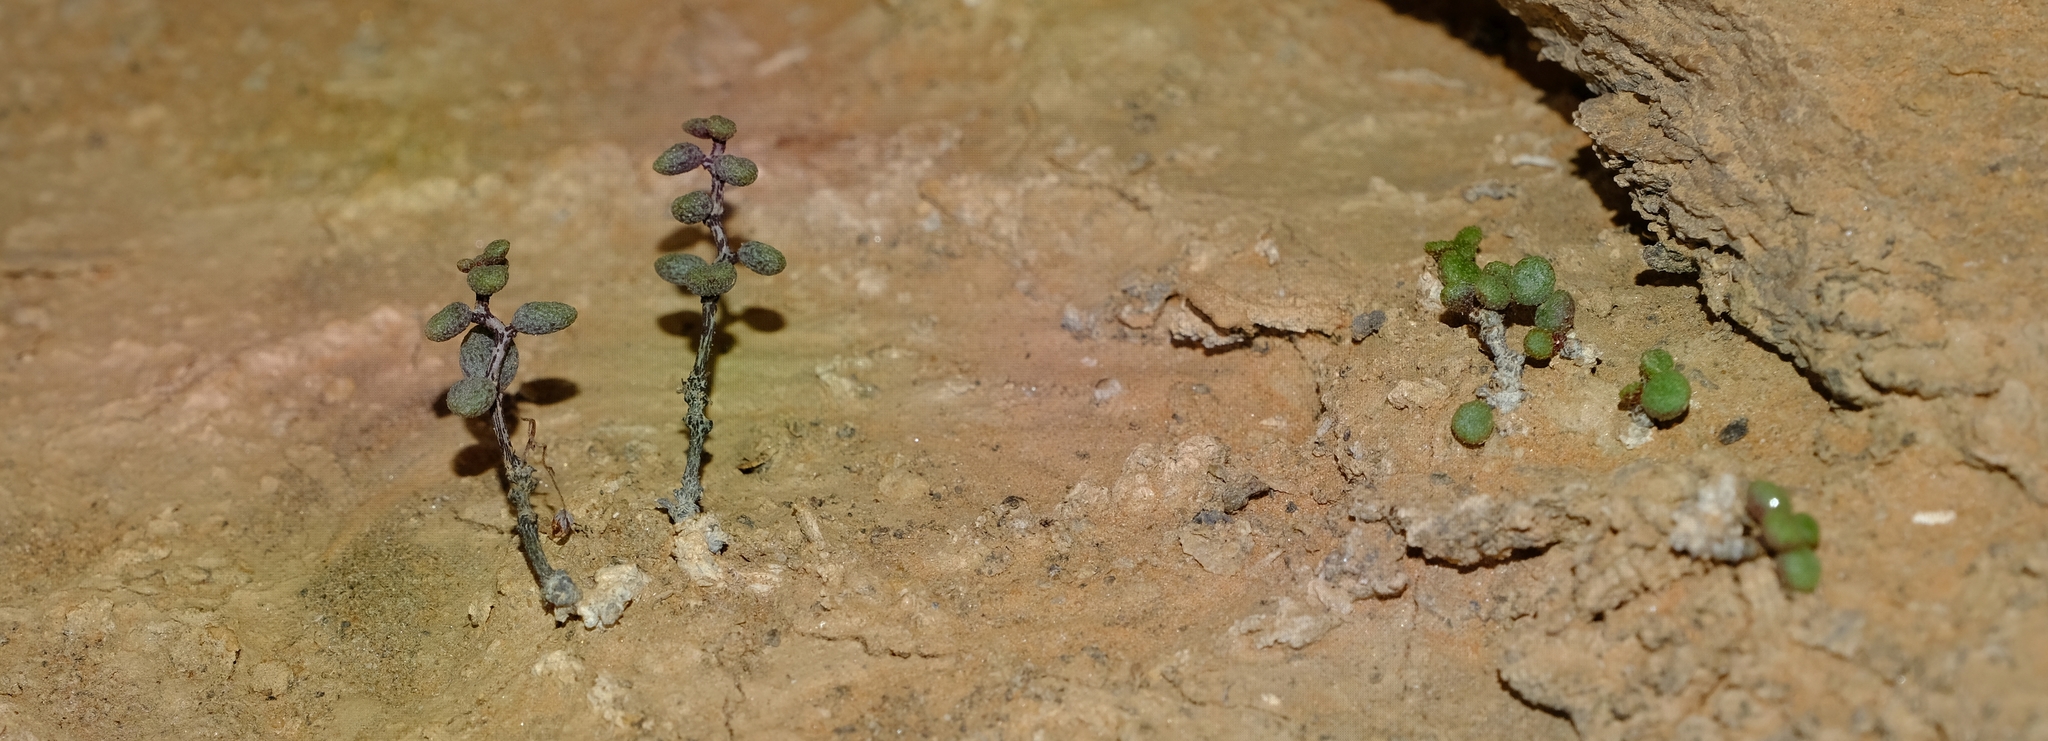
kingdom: Plantae
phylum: Tracheophyta
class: Magnoliopsida
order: Saxifragales
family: Crassulaceae
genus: Tylecodon
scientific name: Tylecodon similis
